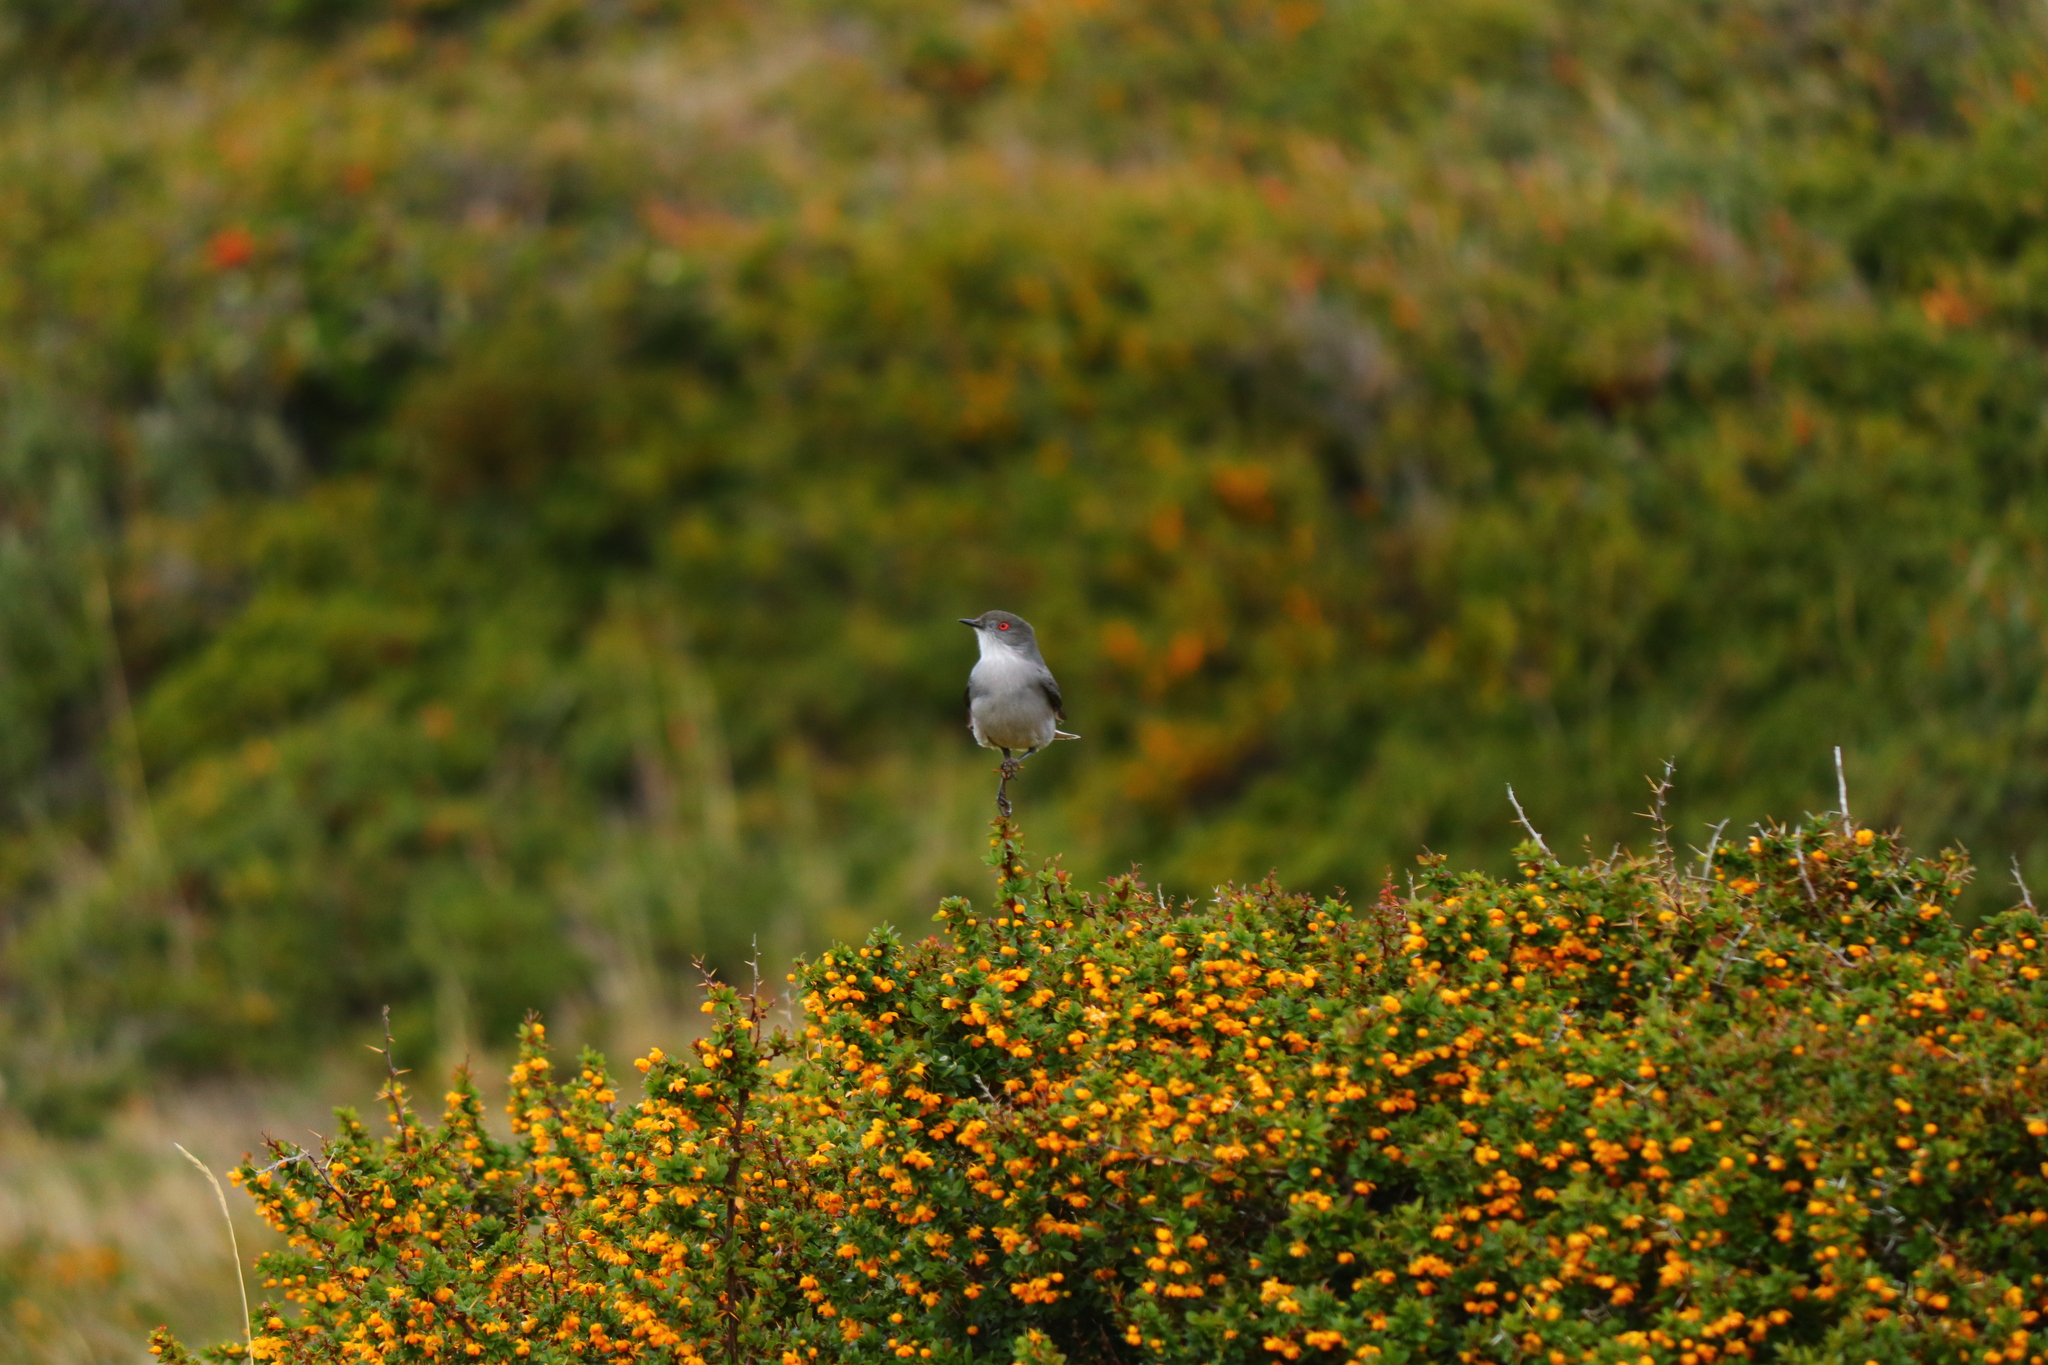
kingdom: Animalia
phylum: Chordata
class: Aves
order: Passeriformes
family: Tyrannidae
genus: Xolmis
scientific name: Xolmis pyrope
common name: Fire-eyed diucon
